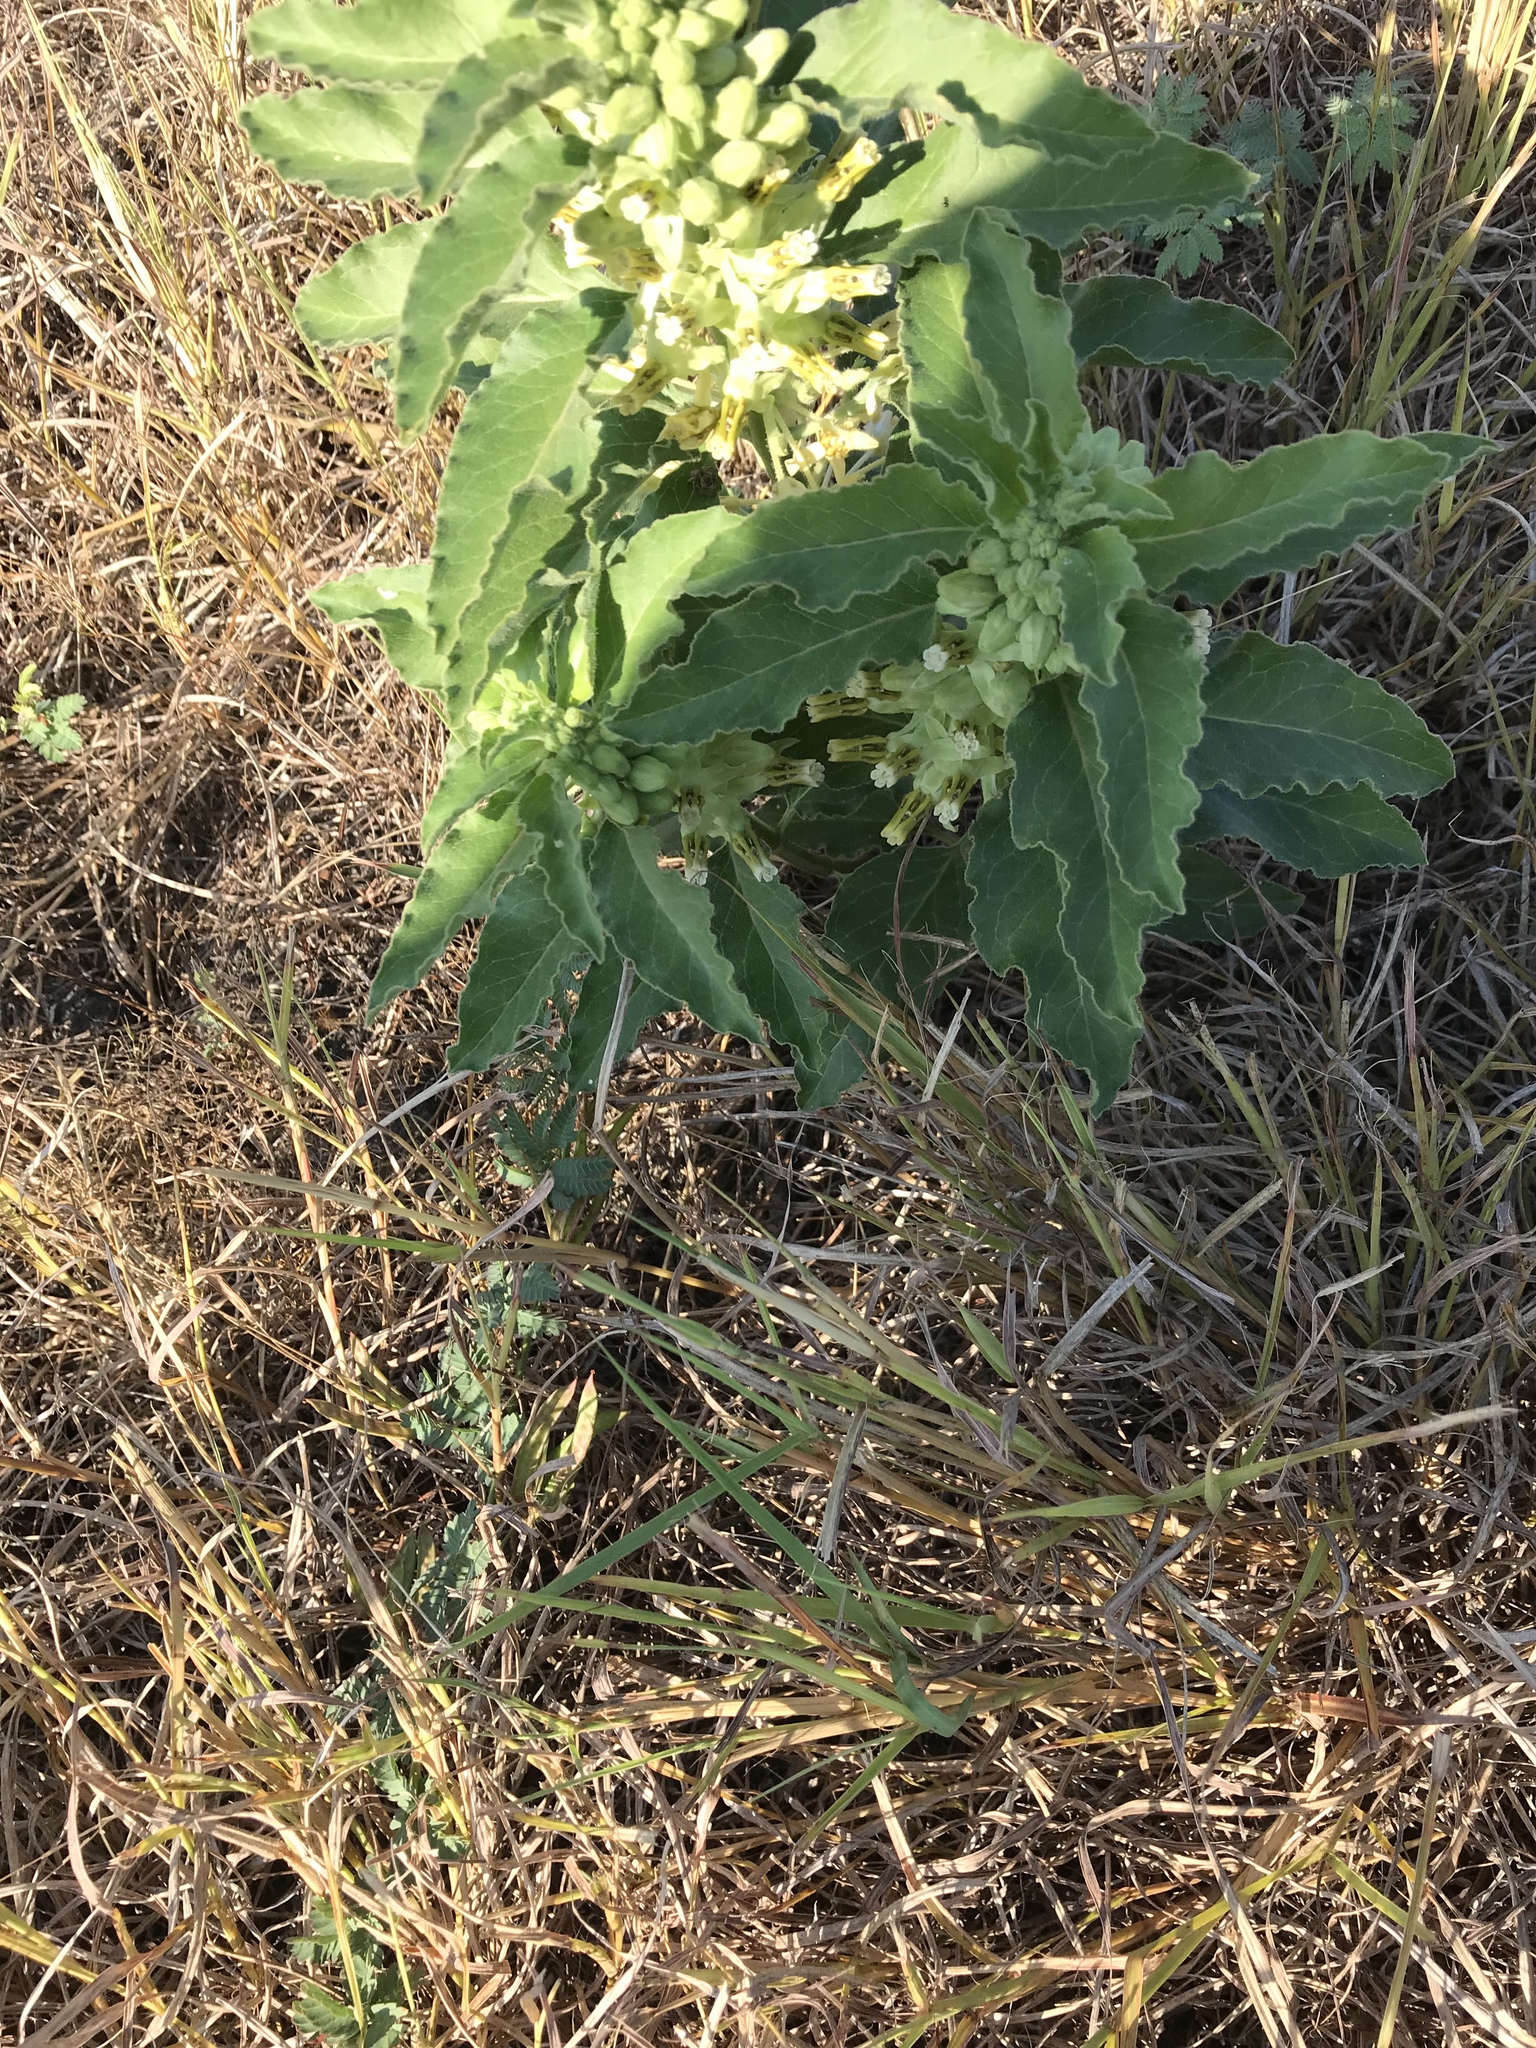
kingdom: Plantae
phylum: Tracheophyta
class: Magnoliopsida
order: Gentianales
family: Apocynaceae
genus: Asclepias
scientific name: Asclepias oenotheroides
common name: Zizotes milkweed
